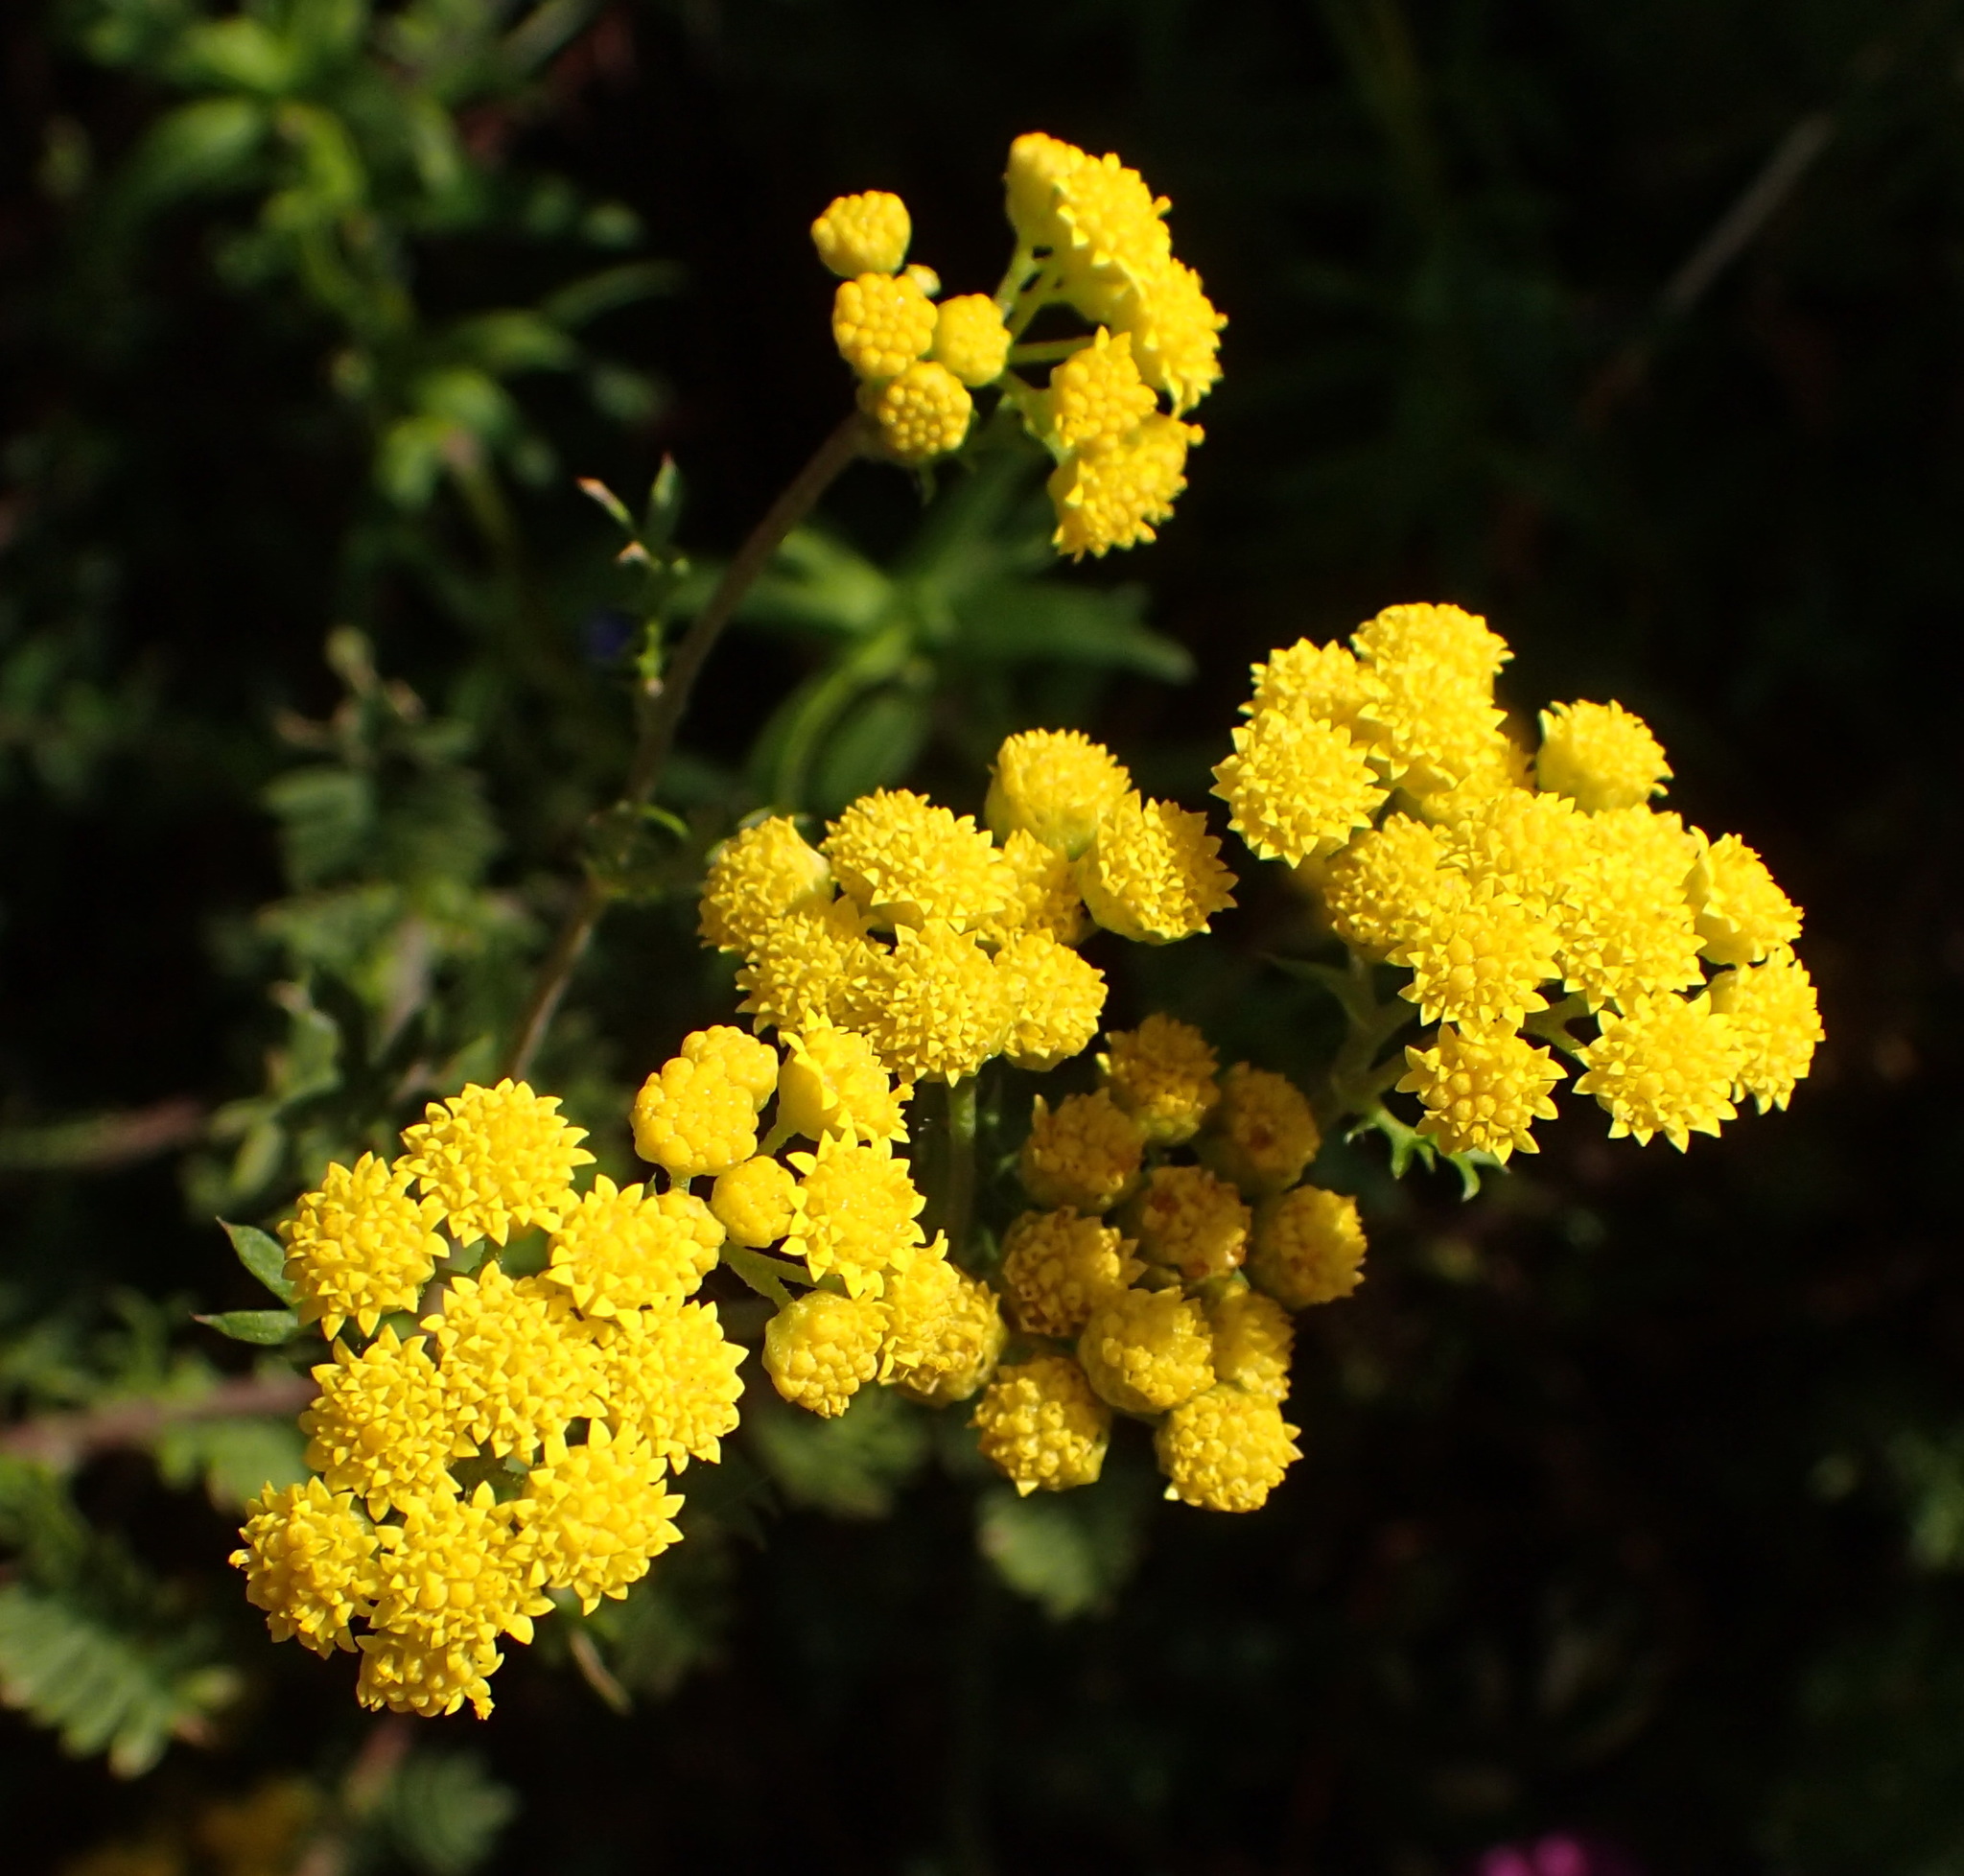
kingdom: Plantae
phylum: Tracheophyta
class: Magnoliopsida
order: Asterales
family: Asteraceae
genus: Hippia
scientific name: Hippia frutescens
